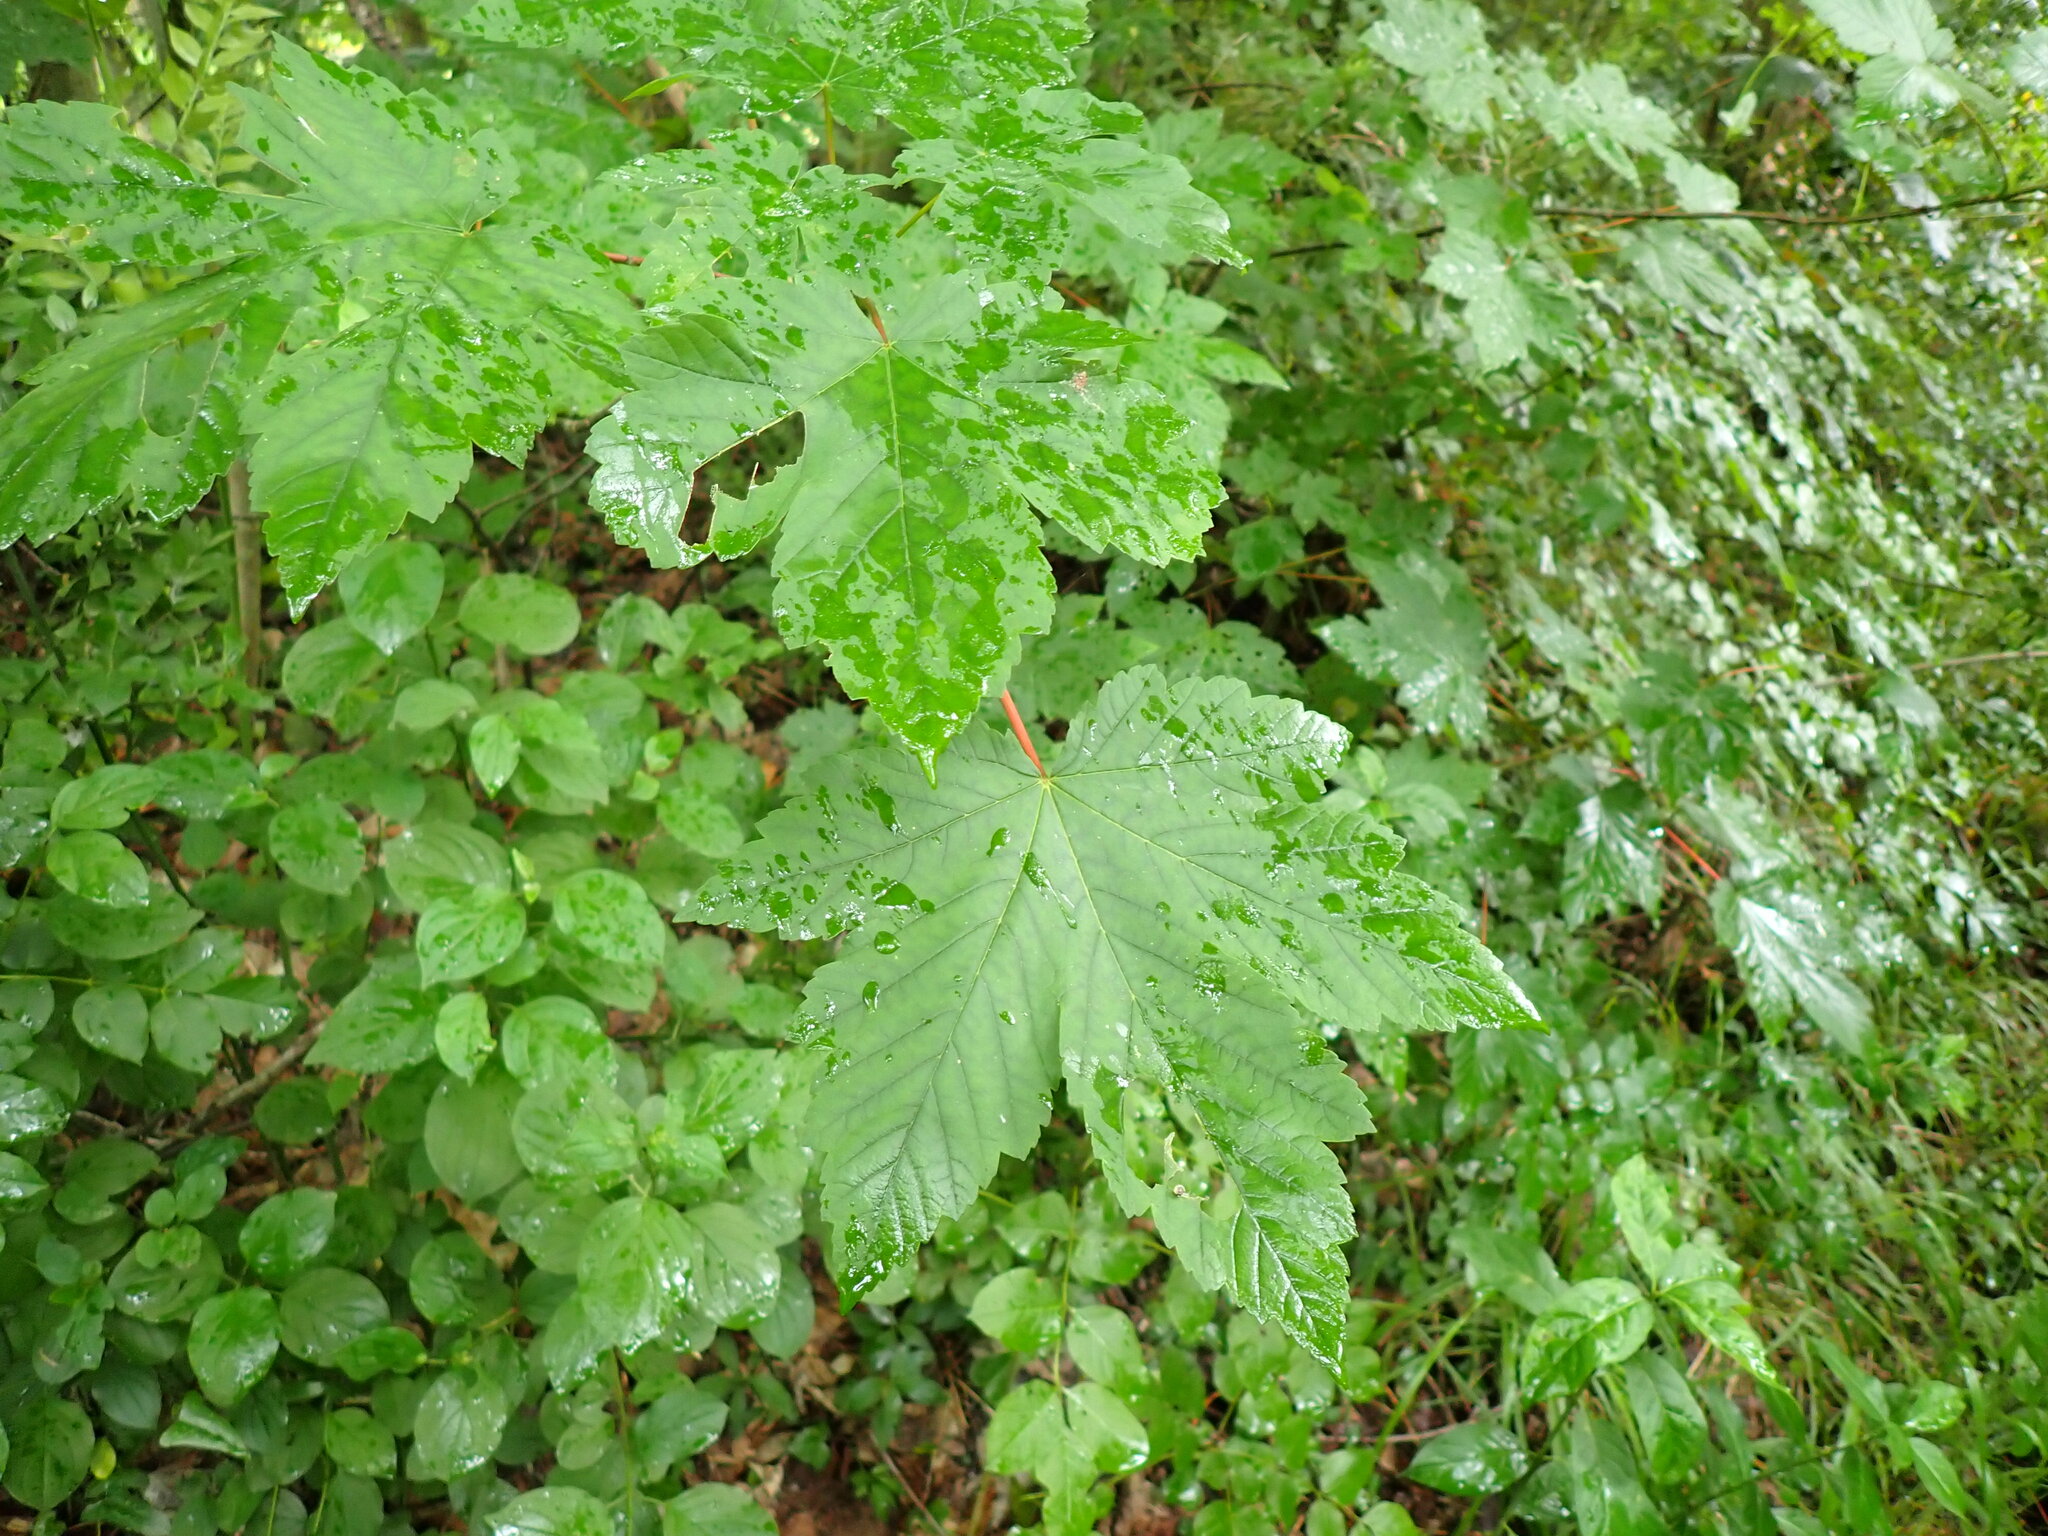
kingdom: Plantae
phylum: Tracheophyta
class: Magnoliopsida
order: Sapindales
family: Sapindaceae
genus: Acer
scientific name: Acer pseudoplatanus
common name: Sycamore
